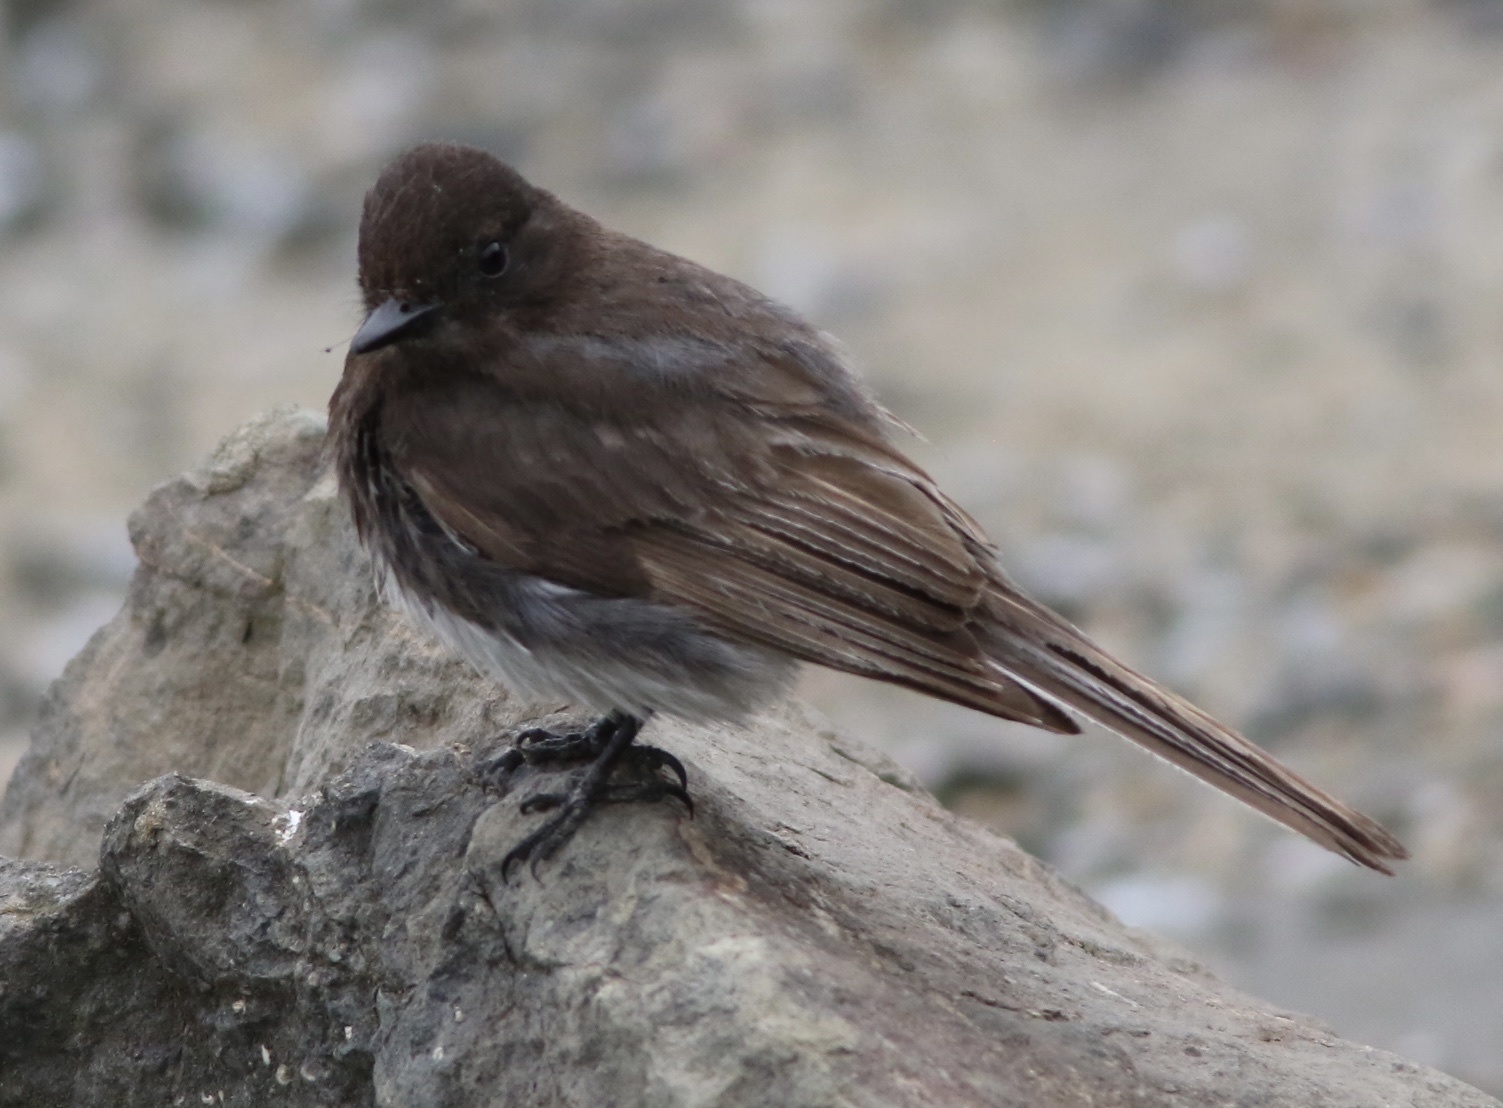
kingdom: Animalia
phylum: Chordata
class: Aves
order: Passeriformes
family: Tyrannidae
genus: Sayornis
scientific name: Sayornis nigricans
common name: Black phoebe
